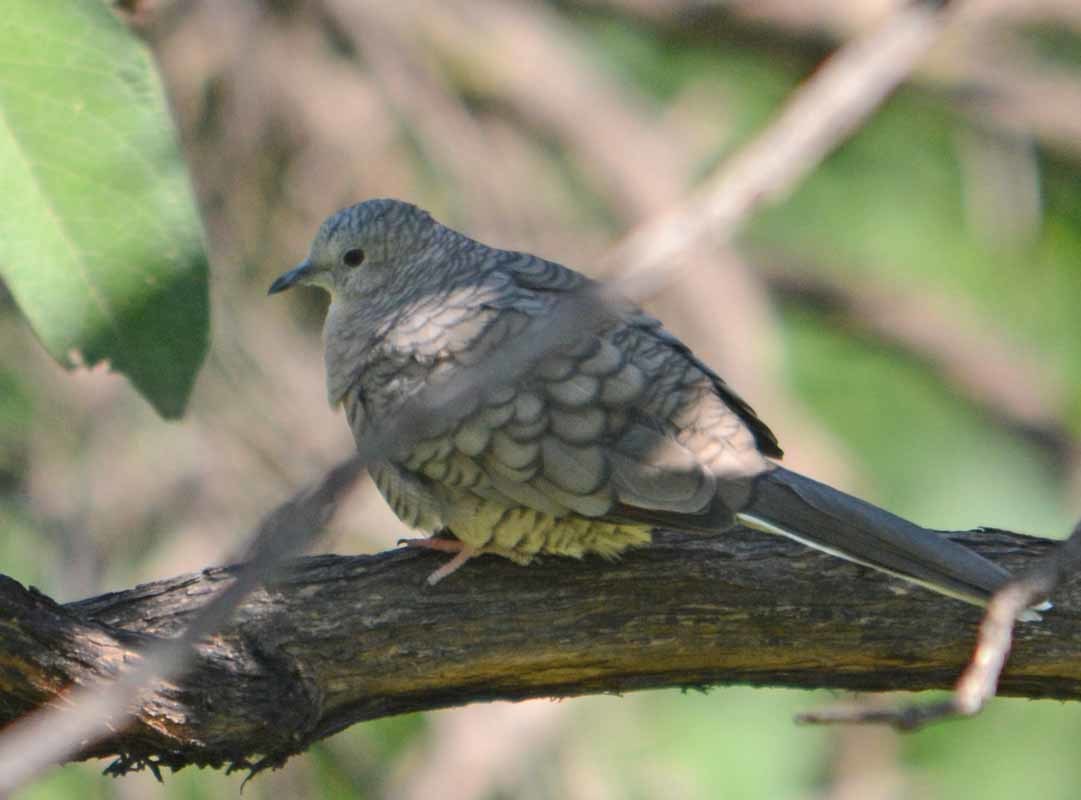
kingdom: Animalia
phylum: Chordata
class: Aves
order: Columbiformes
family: Columbidae
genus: Columbina
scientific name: Columbina inca
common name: Inca dove
